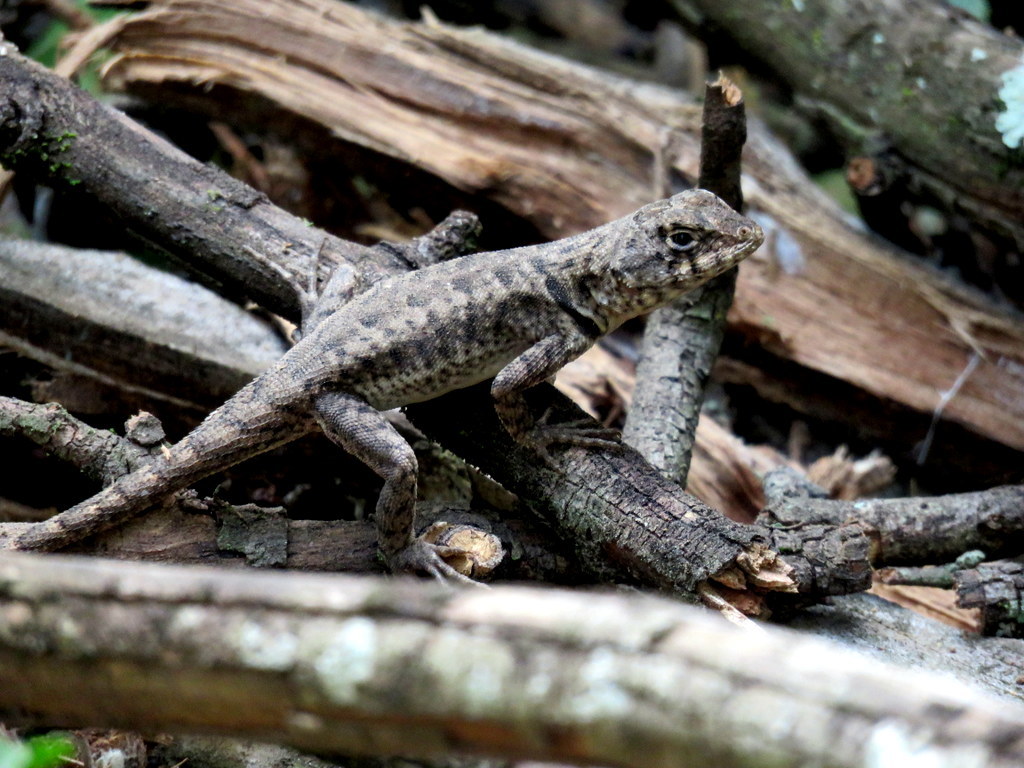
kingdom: Animalia
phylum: Chordata
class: Squamata
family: Tropiduridae
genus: Tropidurus
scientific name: Tropidurus etheridgei
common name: Etheridge's lava lizard
